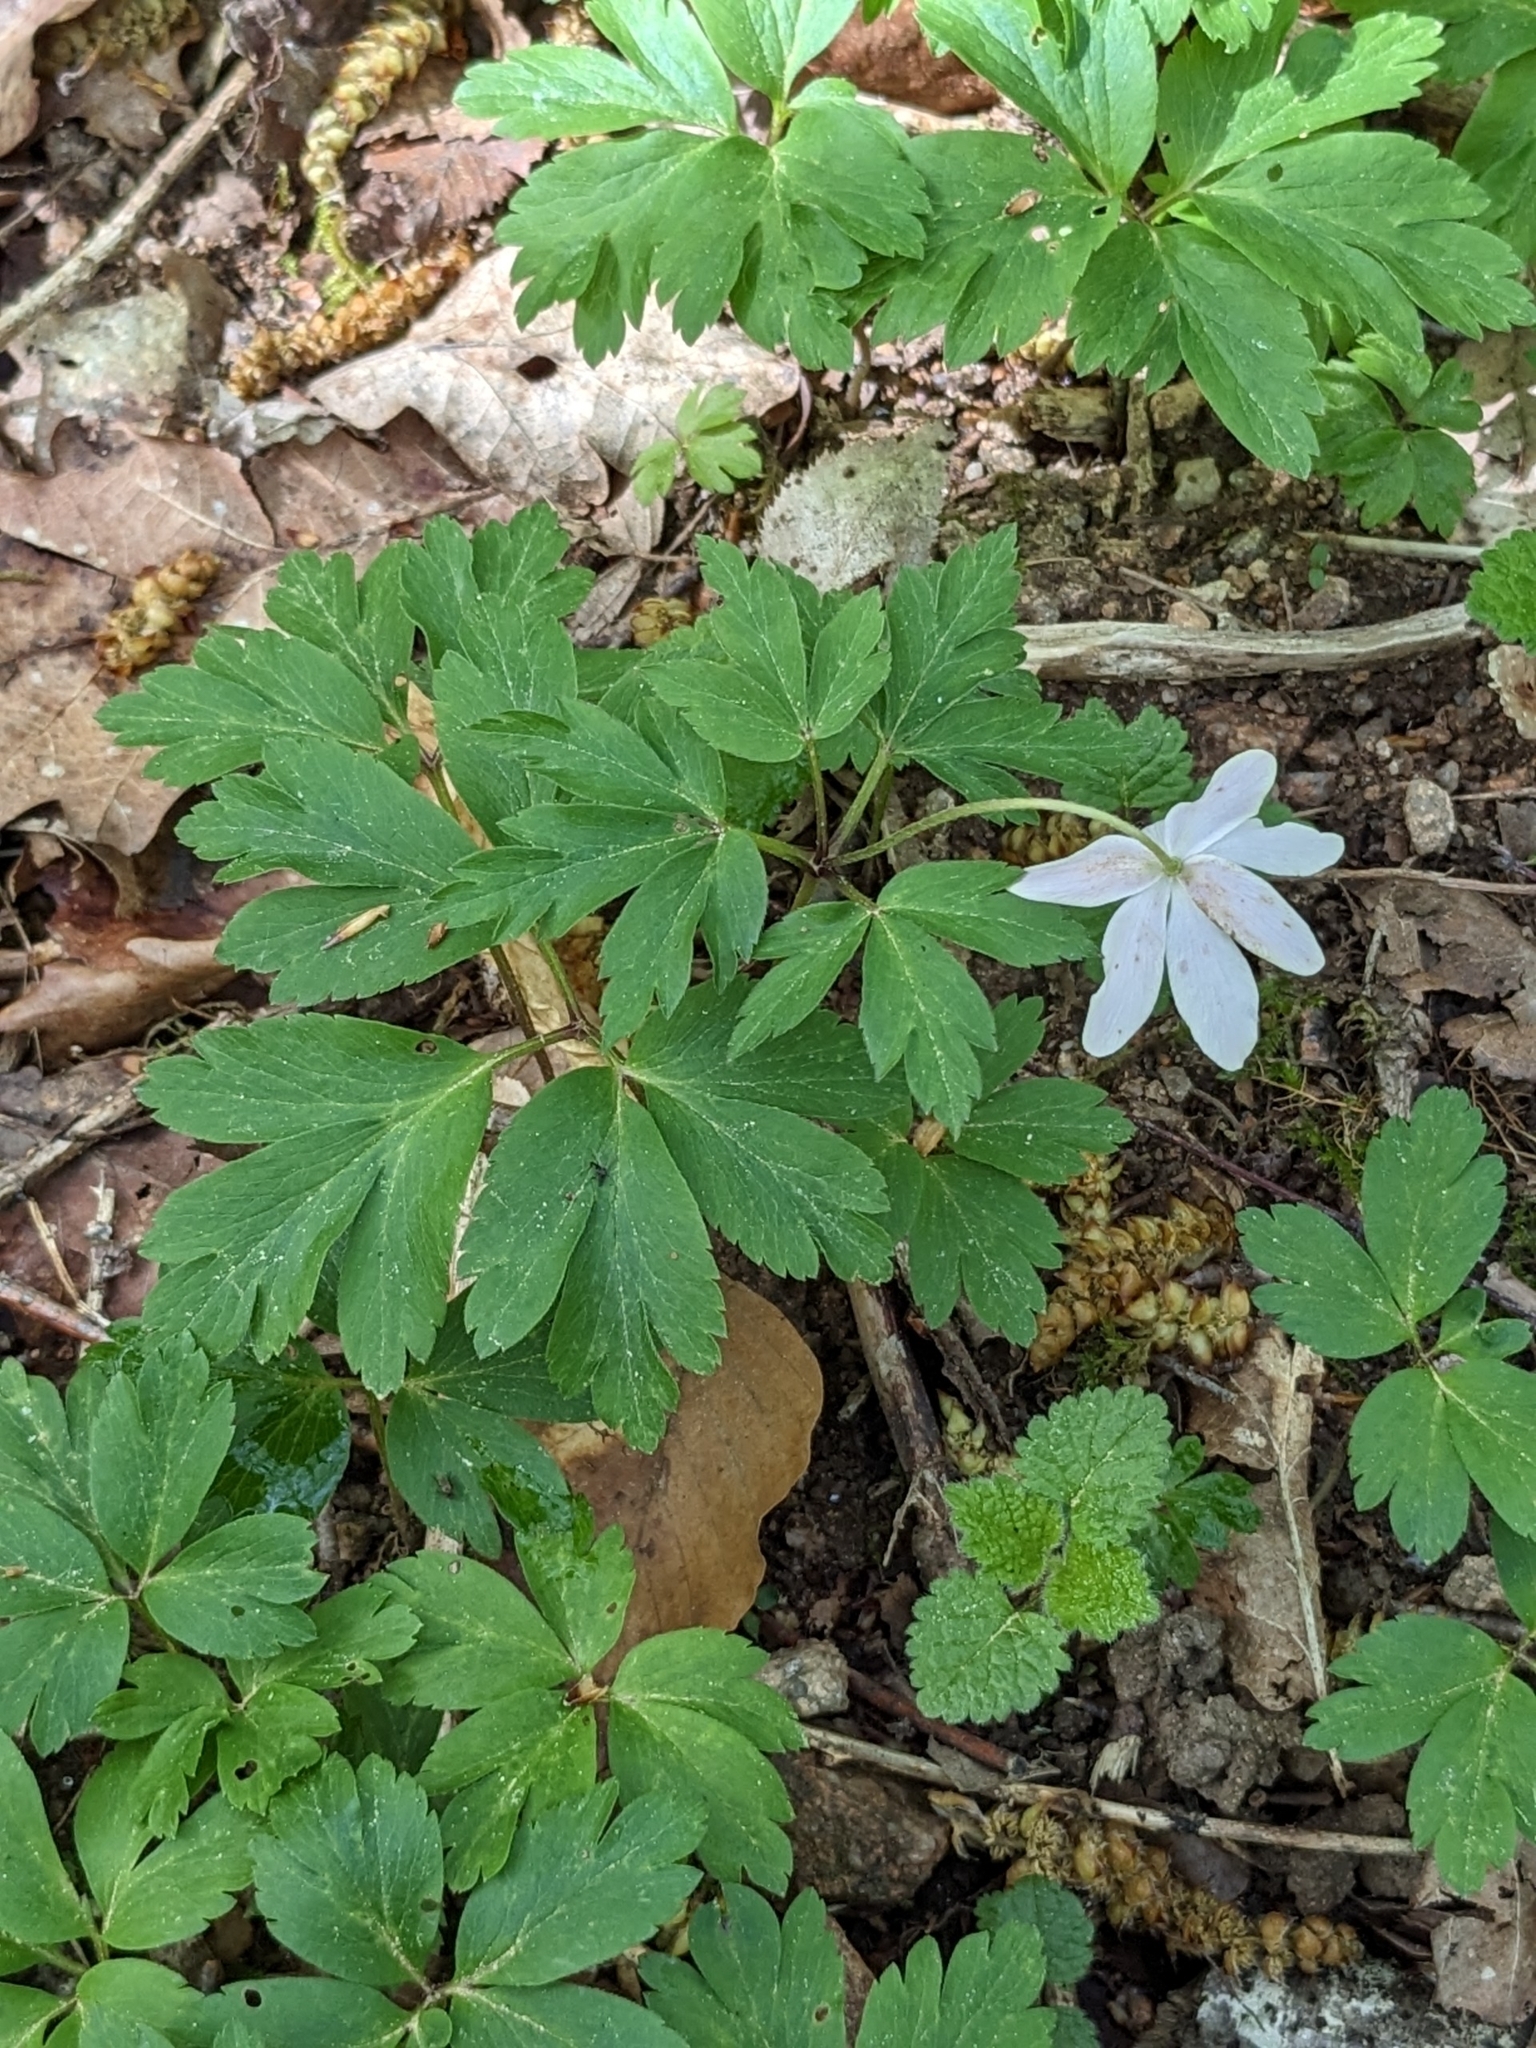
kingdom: Plantae
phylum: Tracheophyta
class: Magnoliopsida
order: Ranunculales
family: Ranunculaceae
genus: Anemone
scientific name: Anemone nemorosa
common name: Wood anemone
